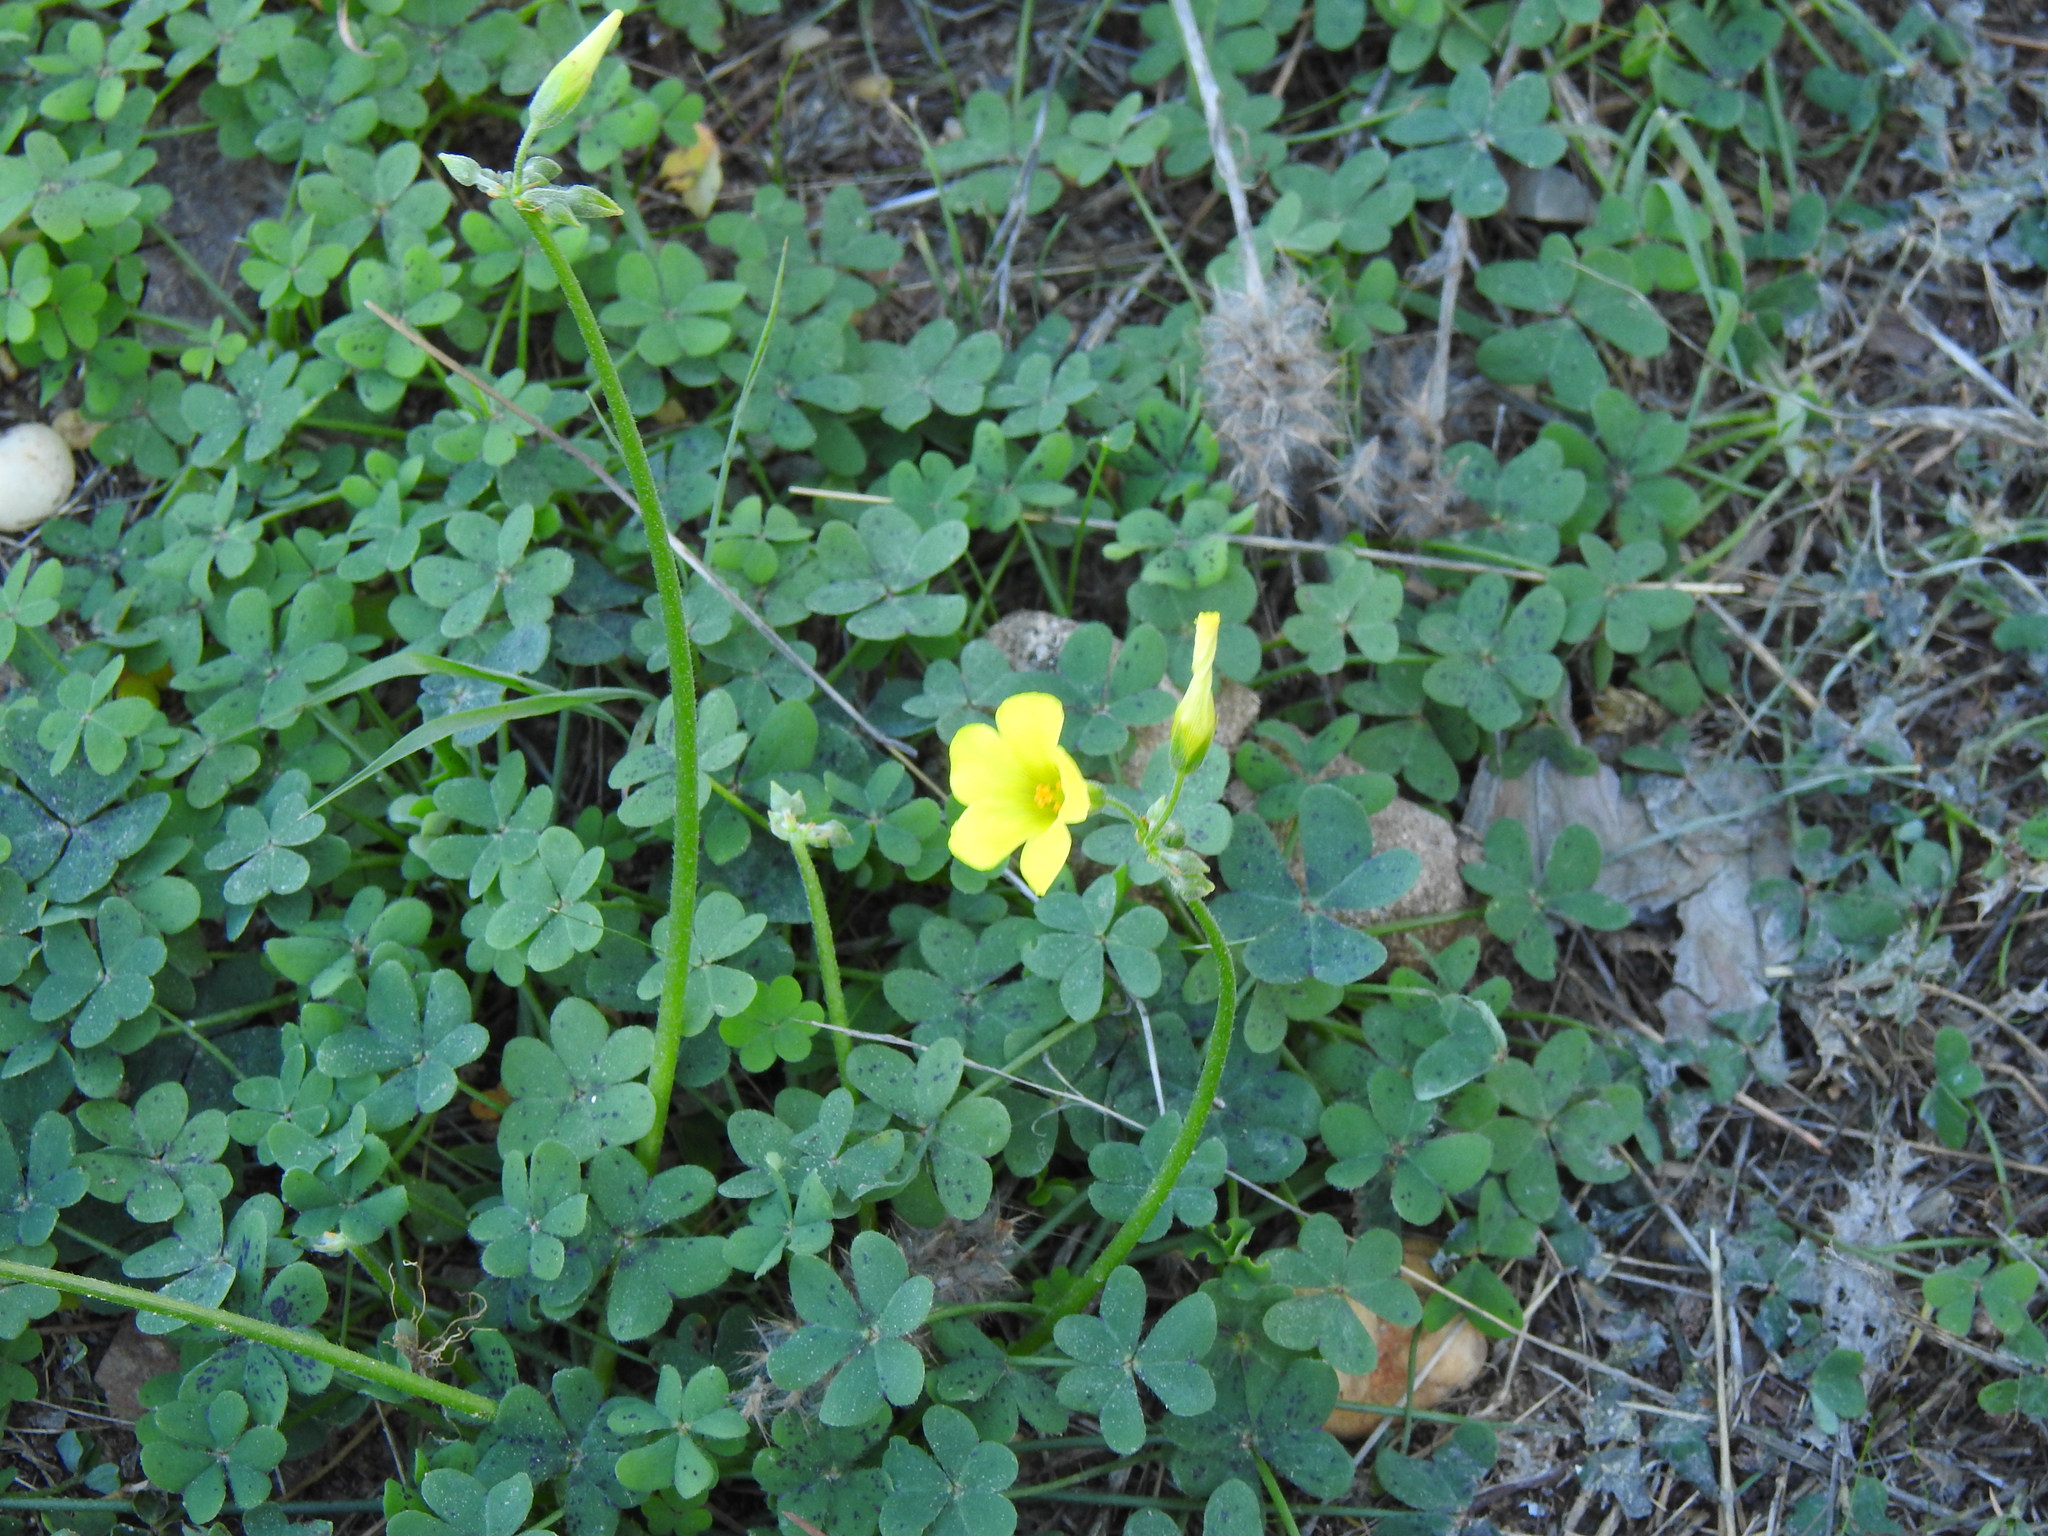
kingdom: Plantae
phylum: Tracheophyta
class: Magnoliopsida
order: Oxalidales
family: Oxalidaceae
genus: Oxalis
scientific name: Oxalis pes-caprae
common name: Bermuda-buttercup
